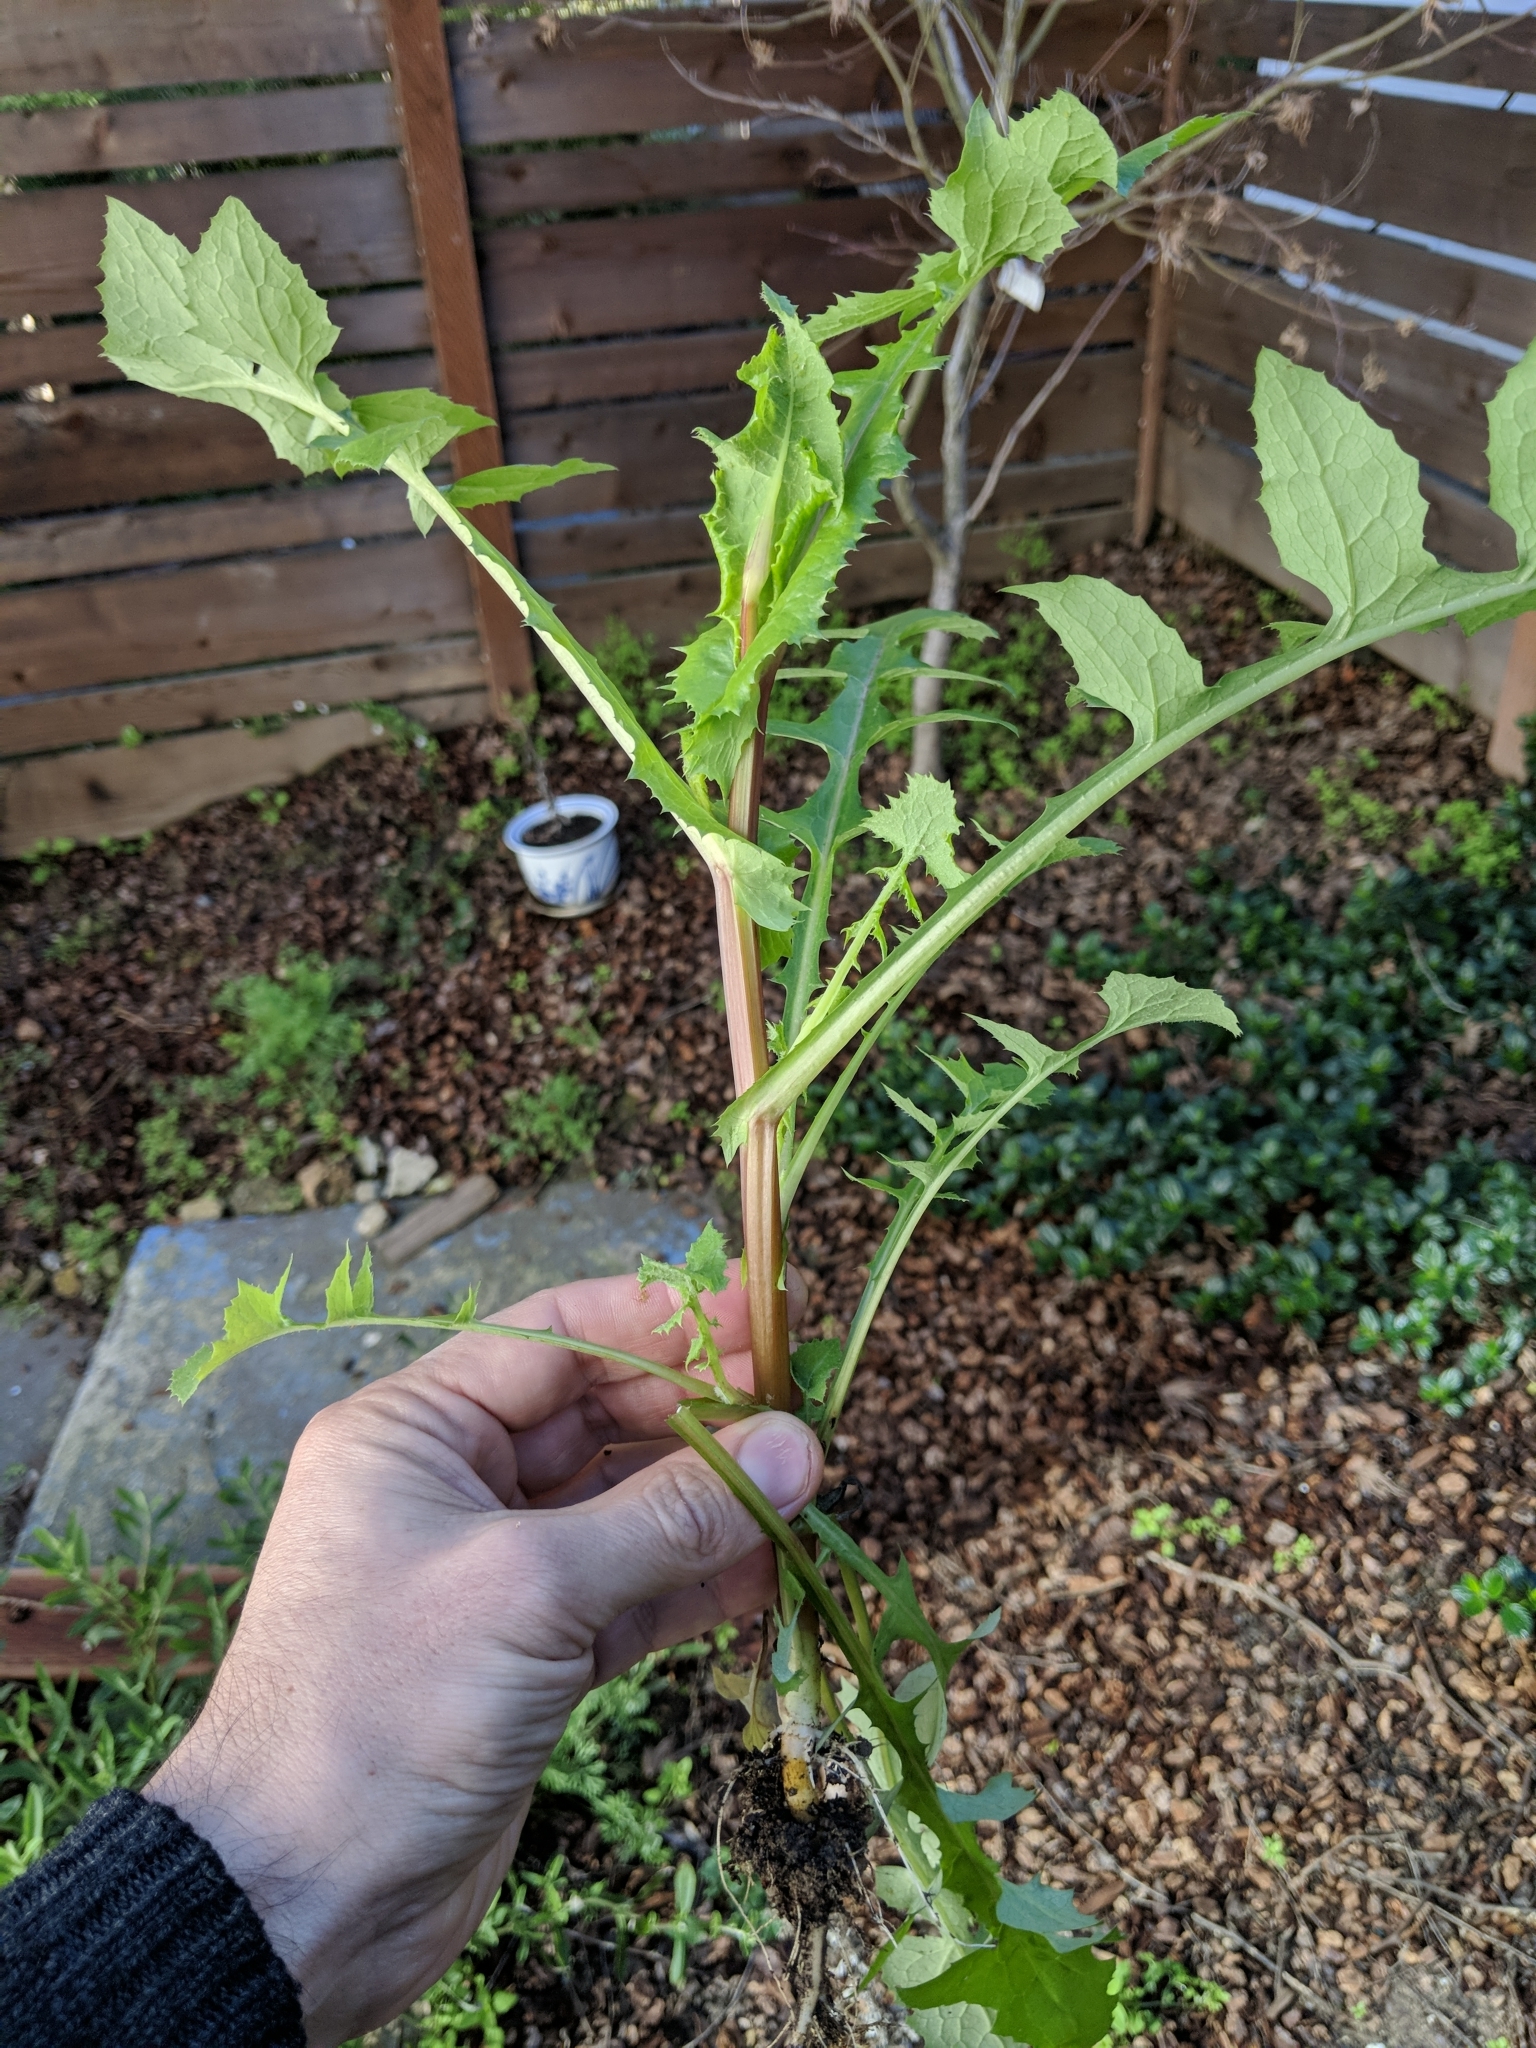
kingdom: Plantae
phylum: Tracheophyta
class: Magnoliopsida
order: Asterales
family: Asteraceae
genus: Sonchus
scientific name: Sonchus oleraceus
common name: Common sowthistle
